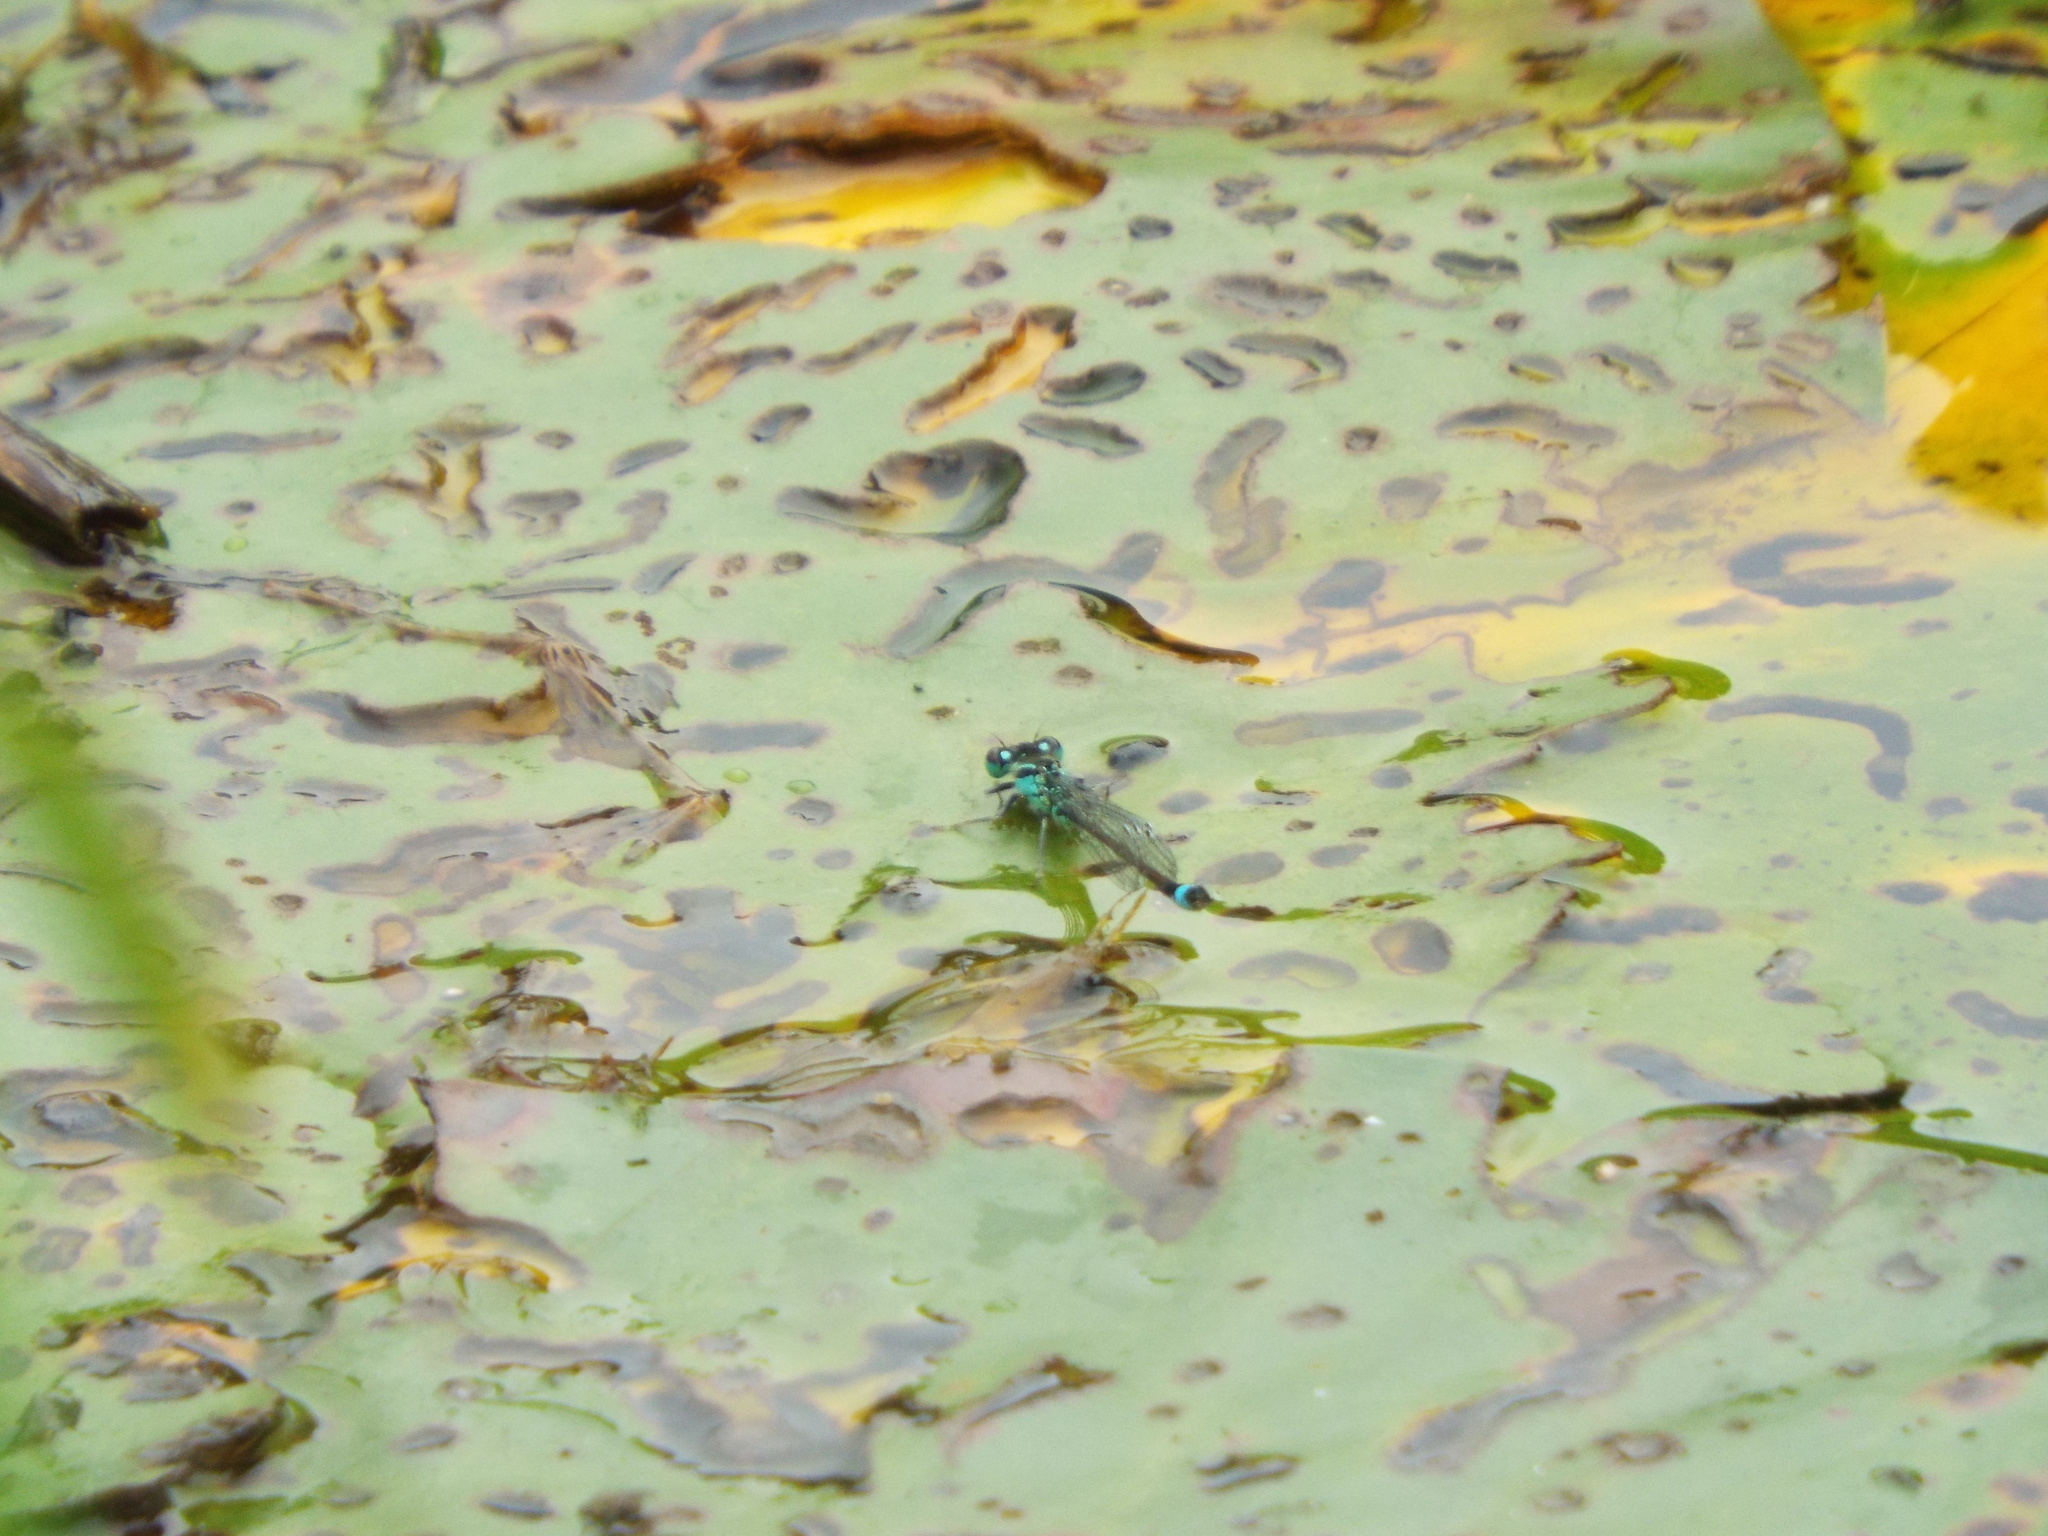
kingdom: Animalia
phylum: Arthropoda
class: Insecta
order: Odonata
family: Coenagrionidae
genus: Ischnura
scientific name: Ischnura elegans
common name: Blue-tailed damselfly
